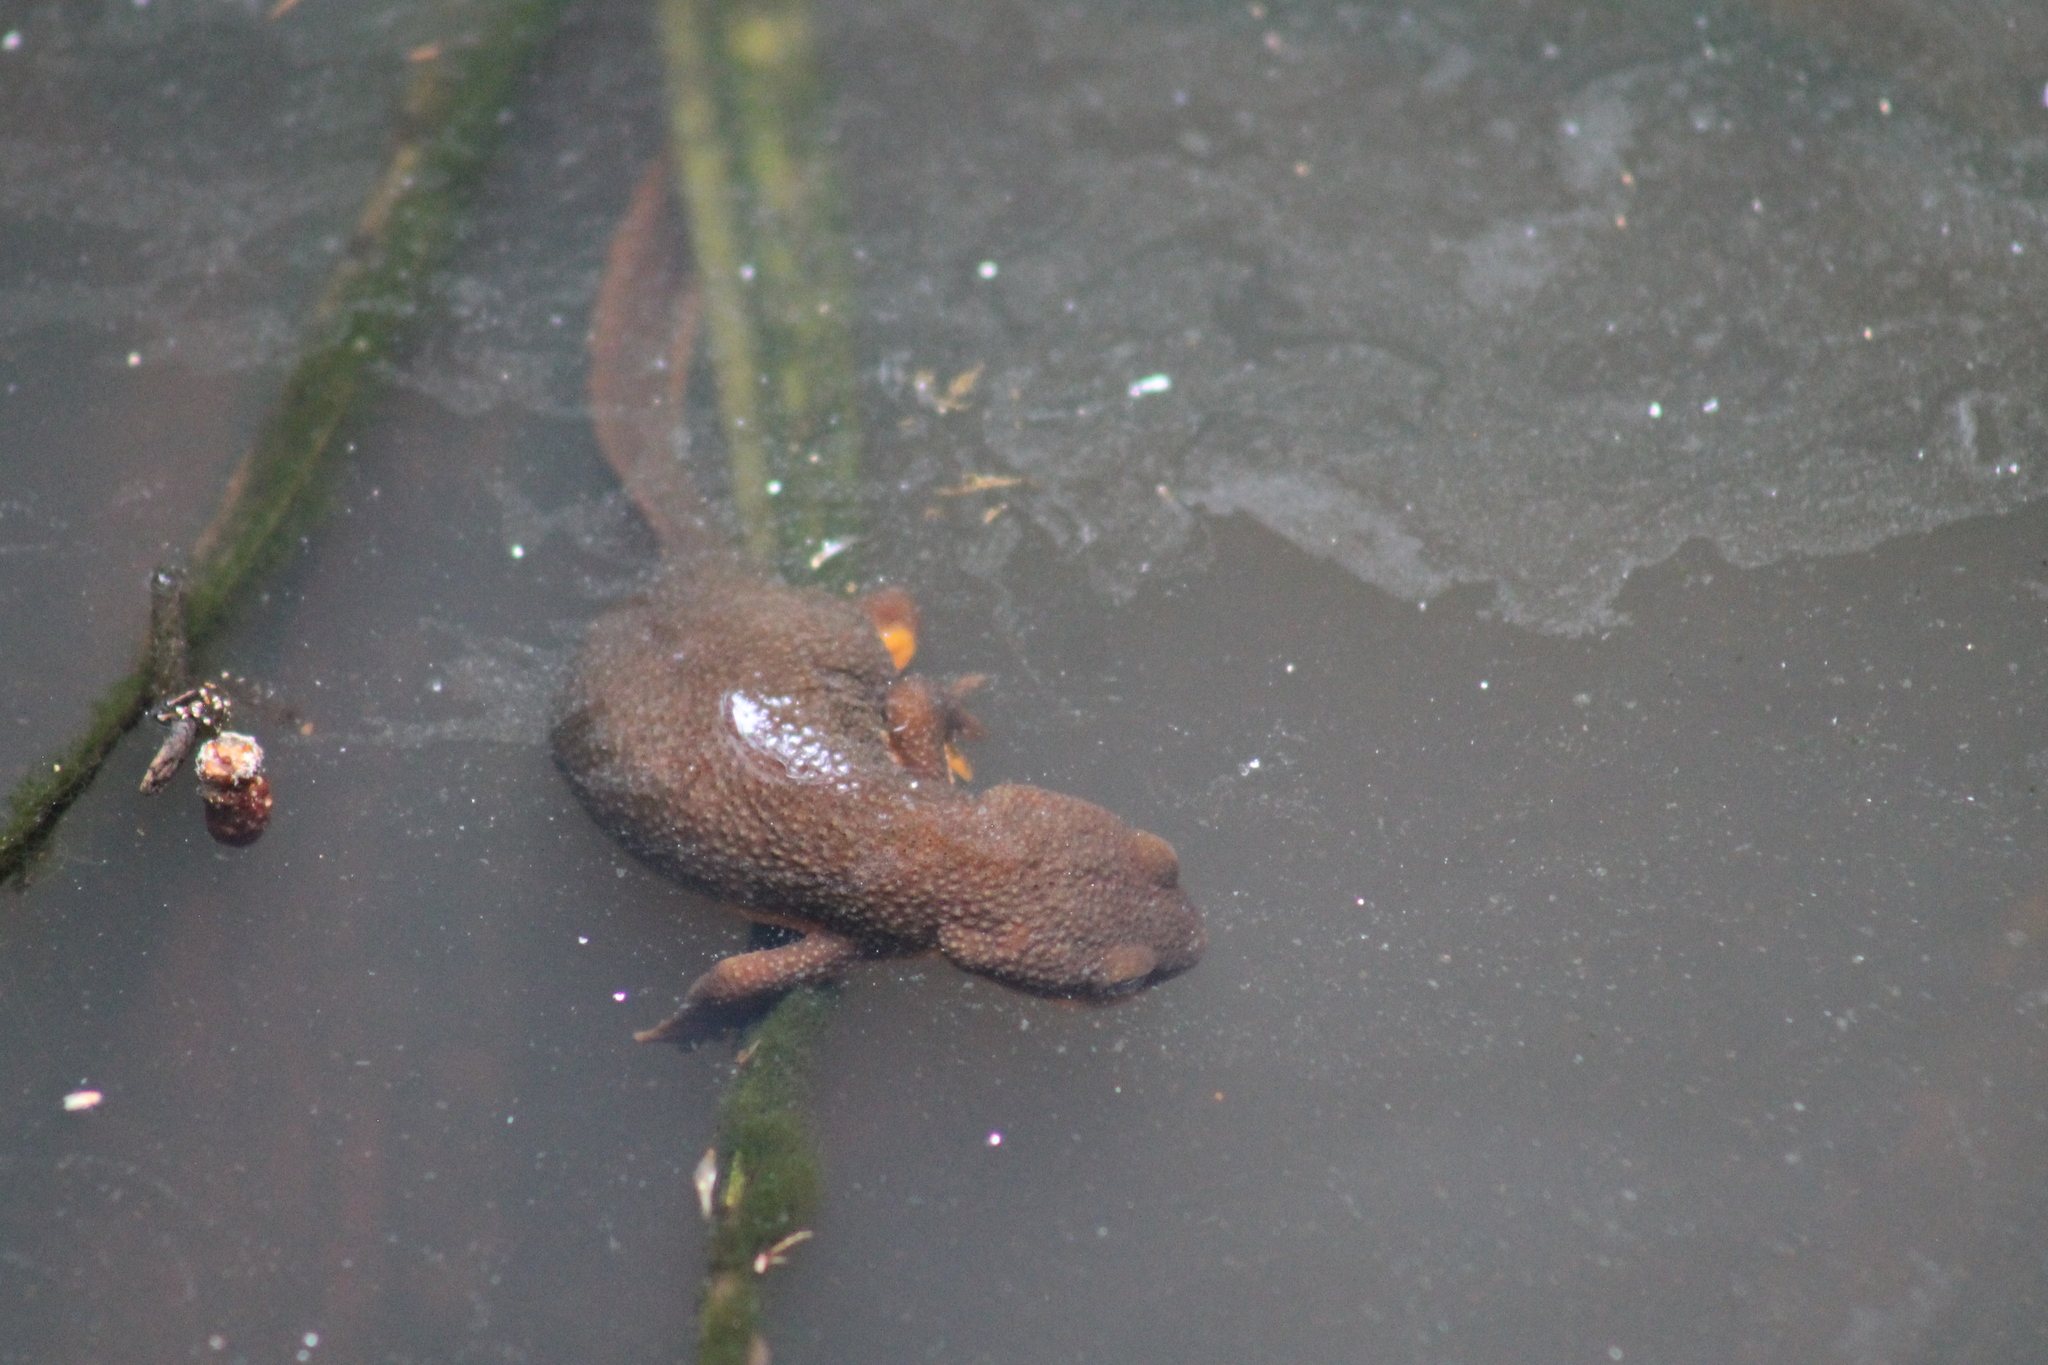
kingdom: Animalia
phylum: Chordata
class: Amphibia
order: Caudata
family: Salamandridae
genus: Taricha
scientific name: Taricha torosa
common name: California newt
